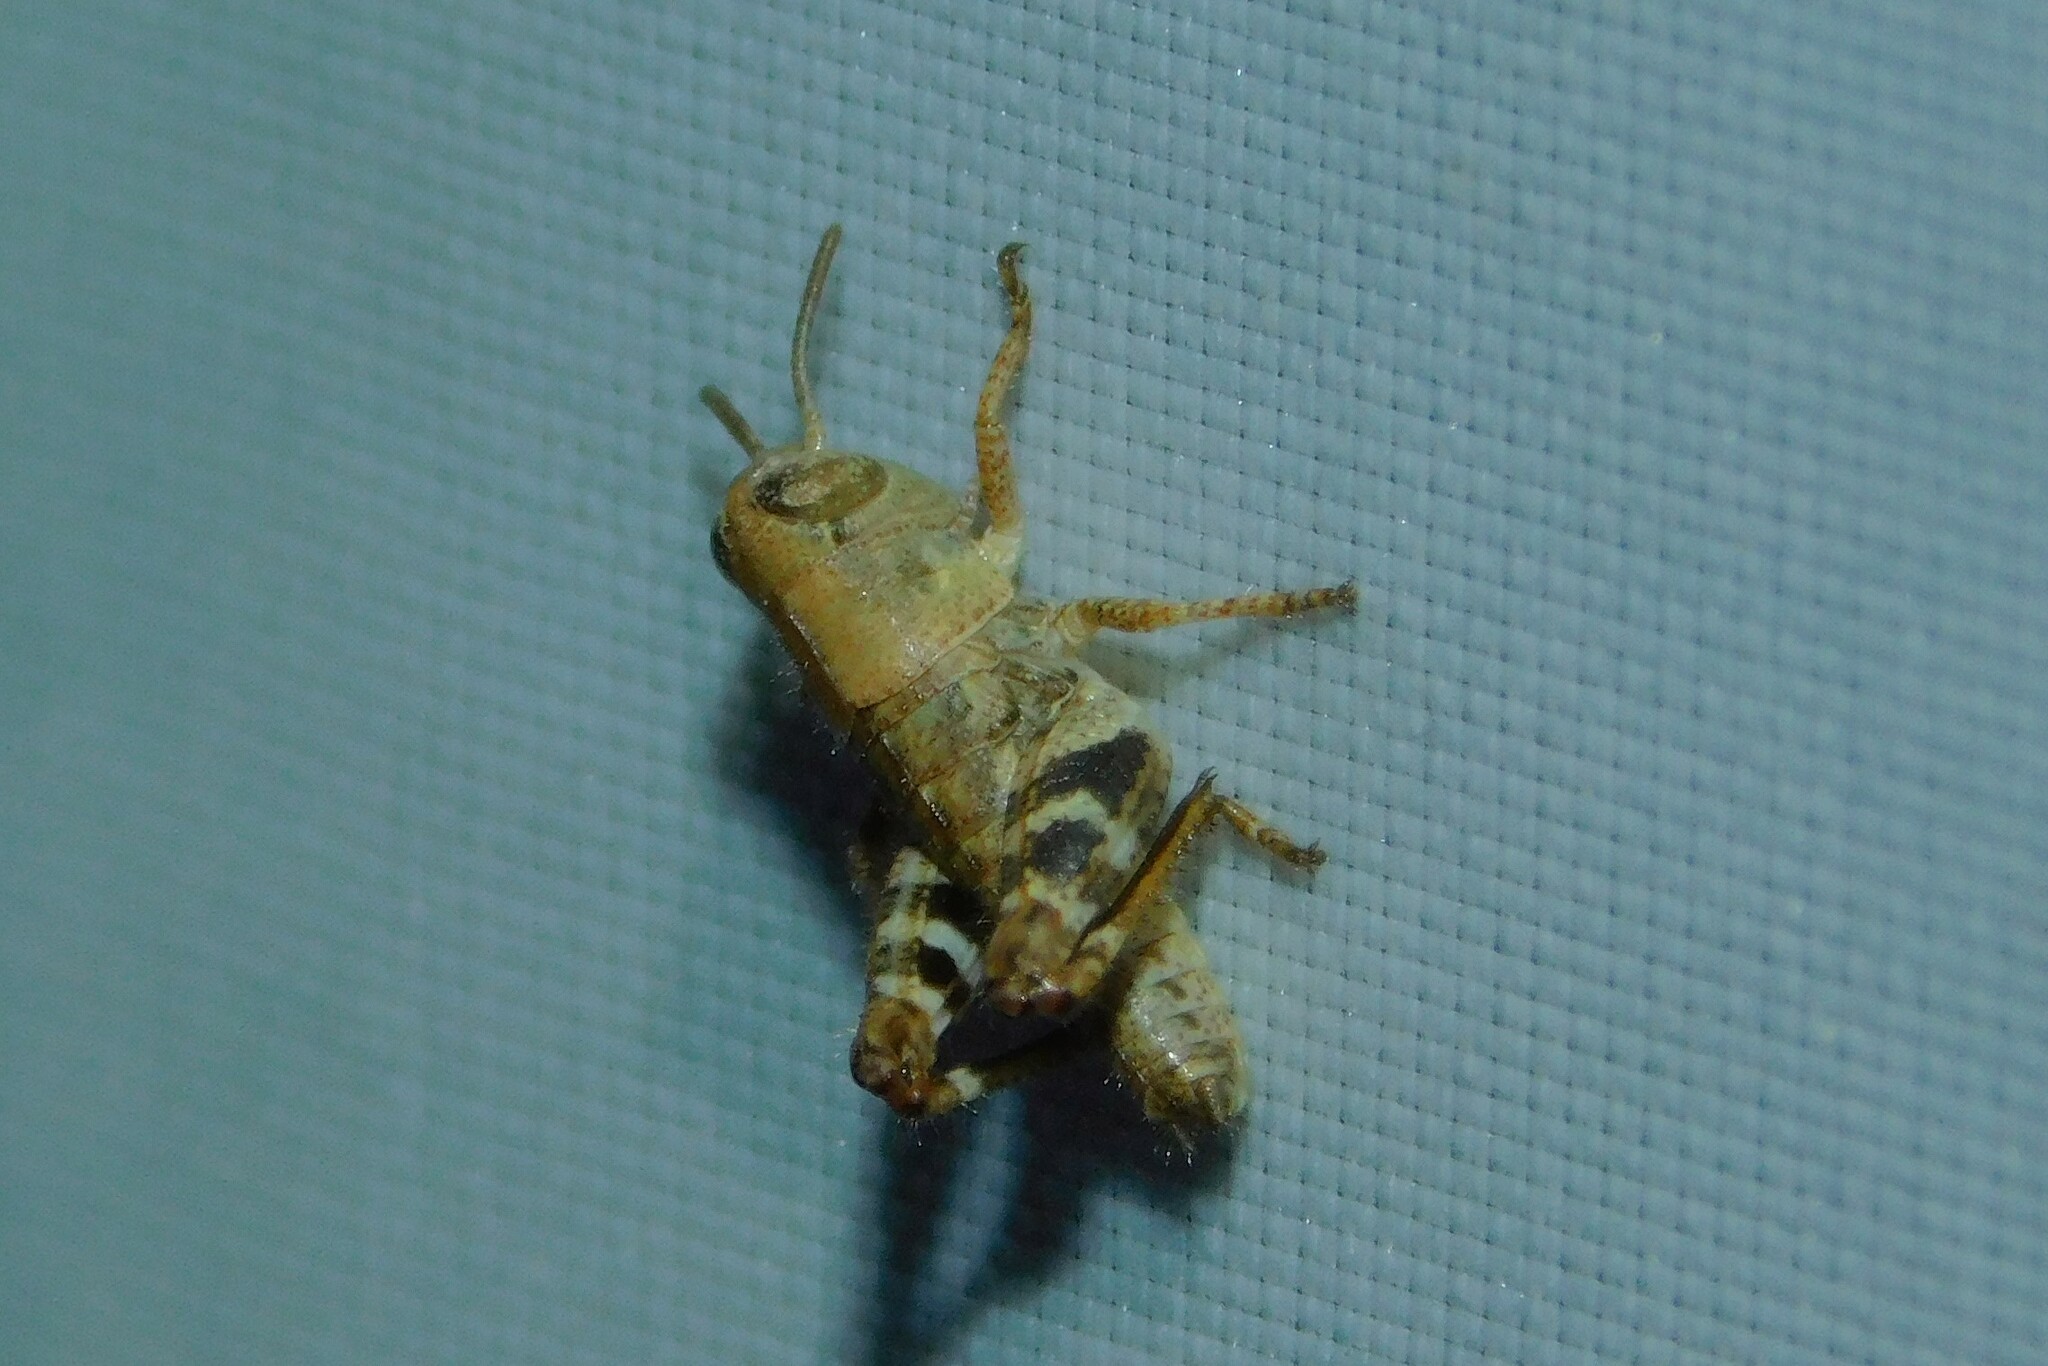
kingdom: Animalia
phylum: Arthropoda
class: Insecta
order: Orthoptera
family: Acrididae
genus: Calliptamus
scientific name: Calliptamus italicus
